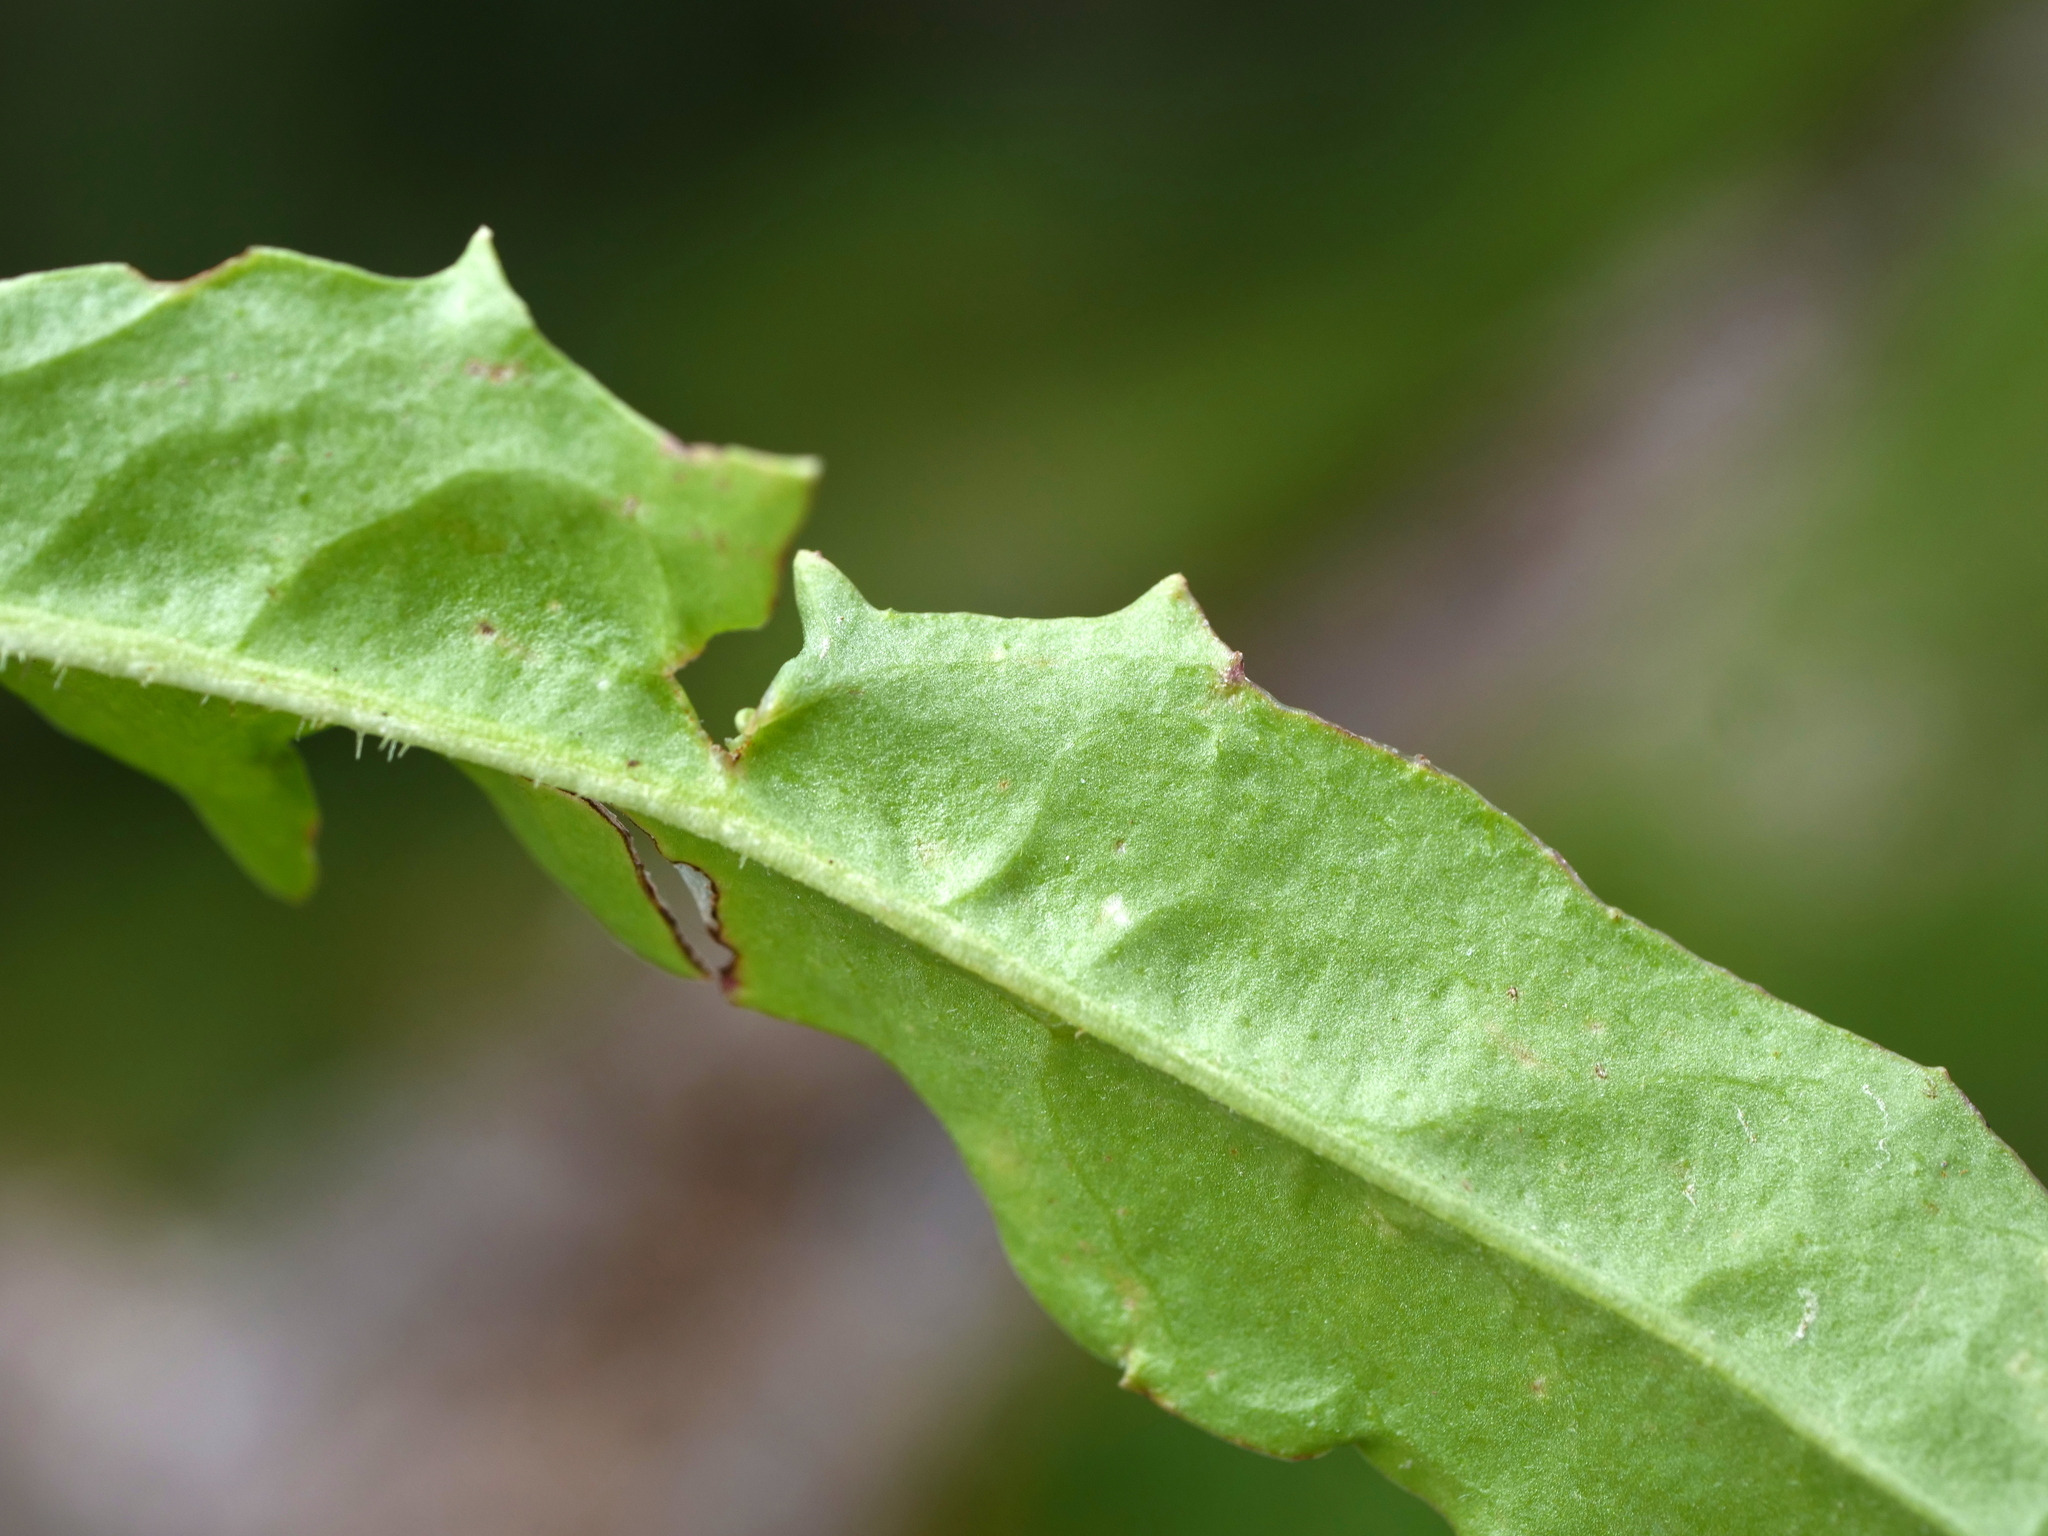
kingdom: Plantae
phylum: Tracheophyta
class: Magnoliopsida
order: Asterales
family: Asteraceae
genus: Crepis
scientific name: Crepis aurea
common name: Golden hawk's-beard
